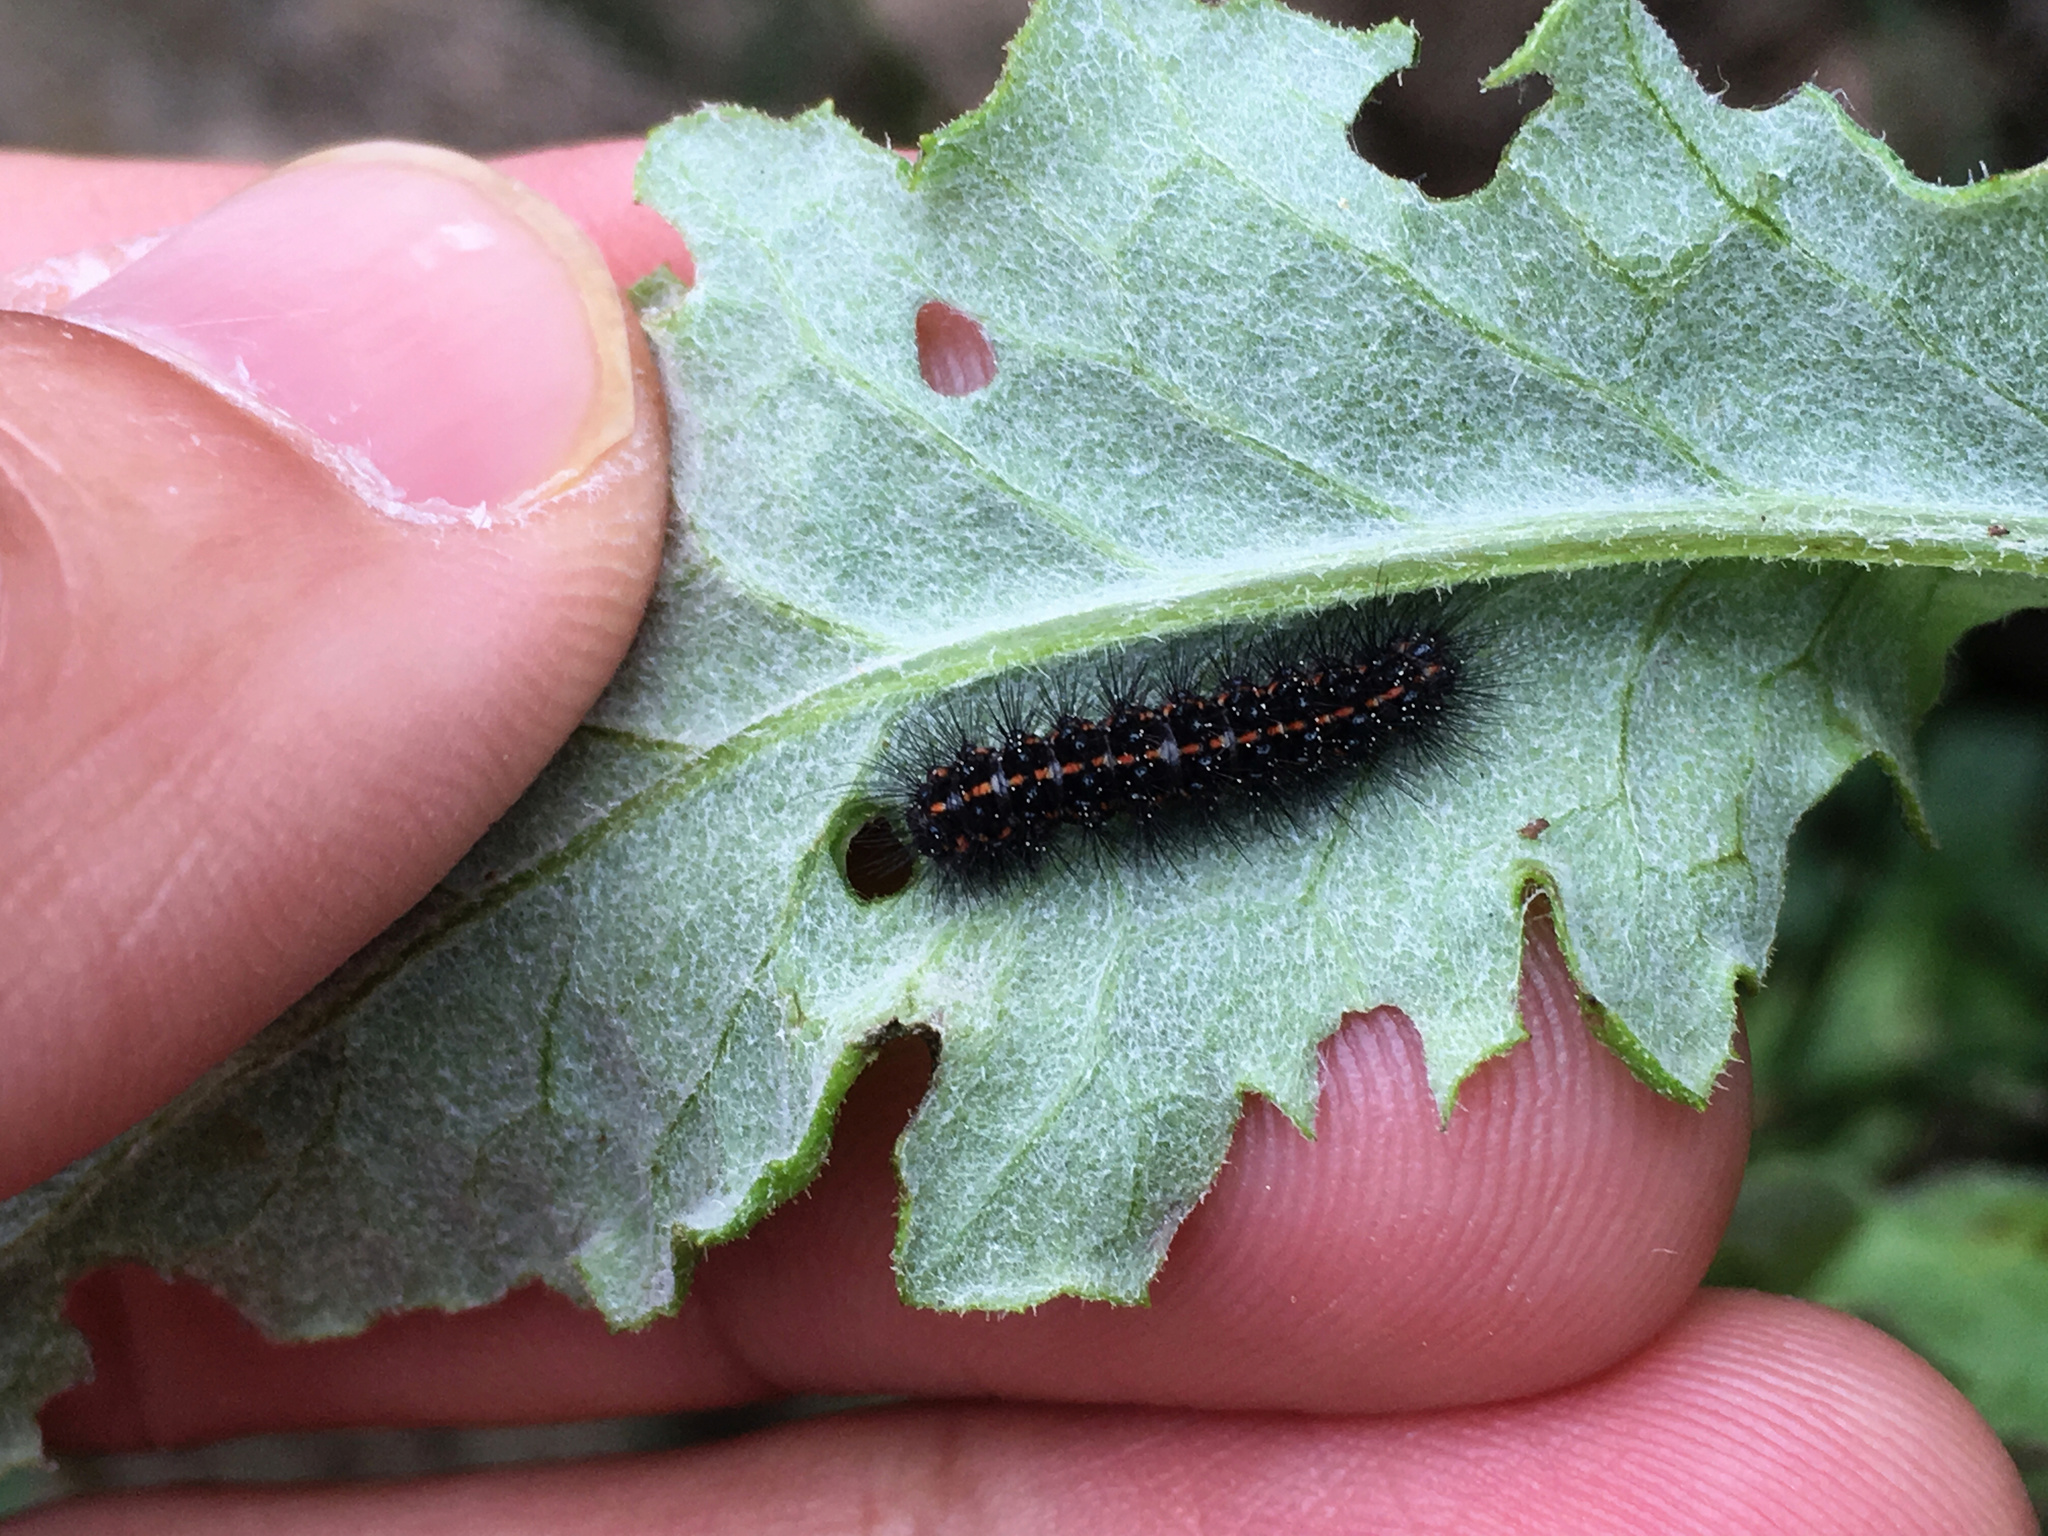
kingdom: Animalia
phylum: Arthropoda
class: Insecta
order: Lepidoptera
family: Erebidae
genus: Nyctemera
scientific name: Nyctemera annulatum
